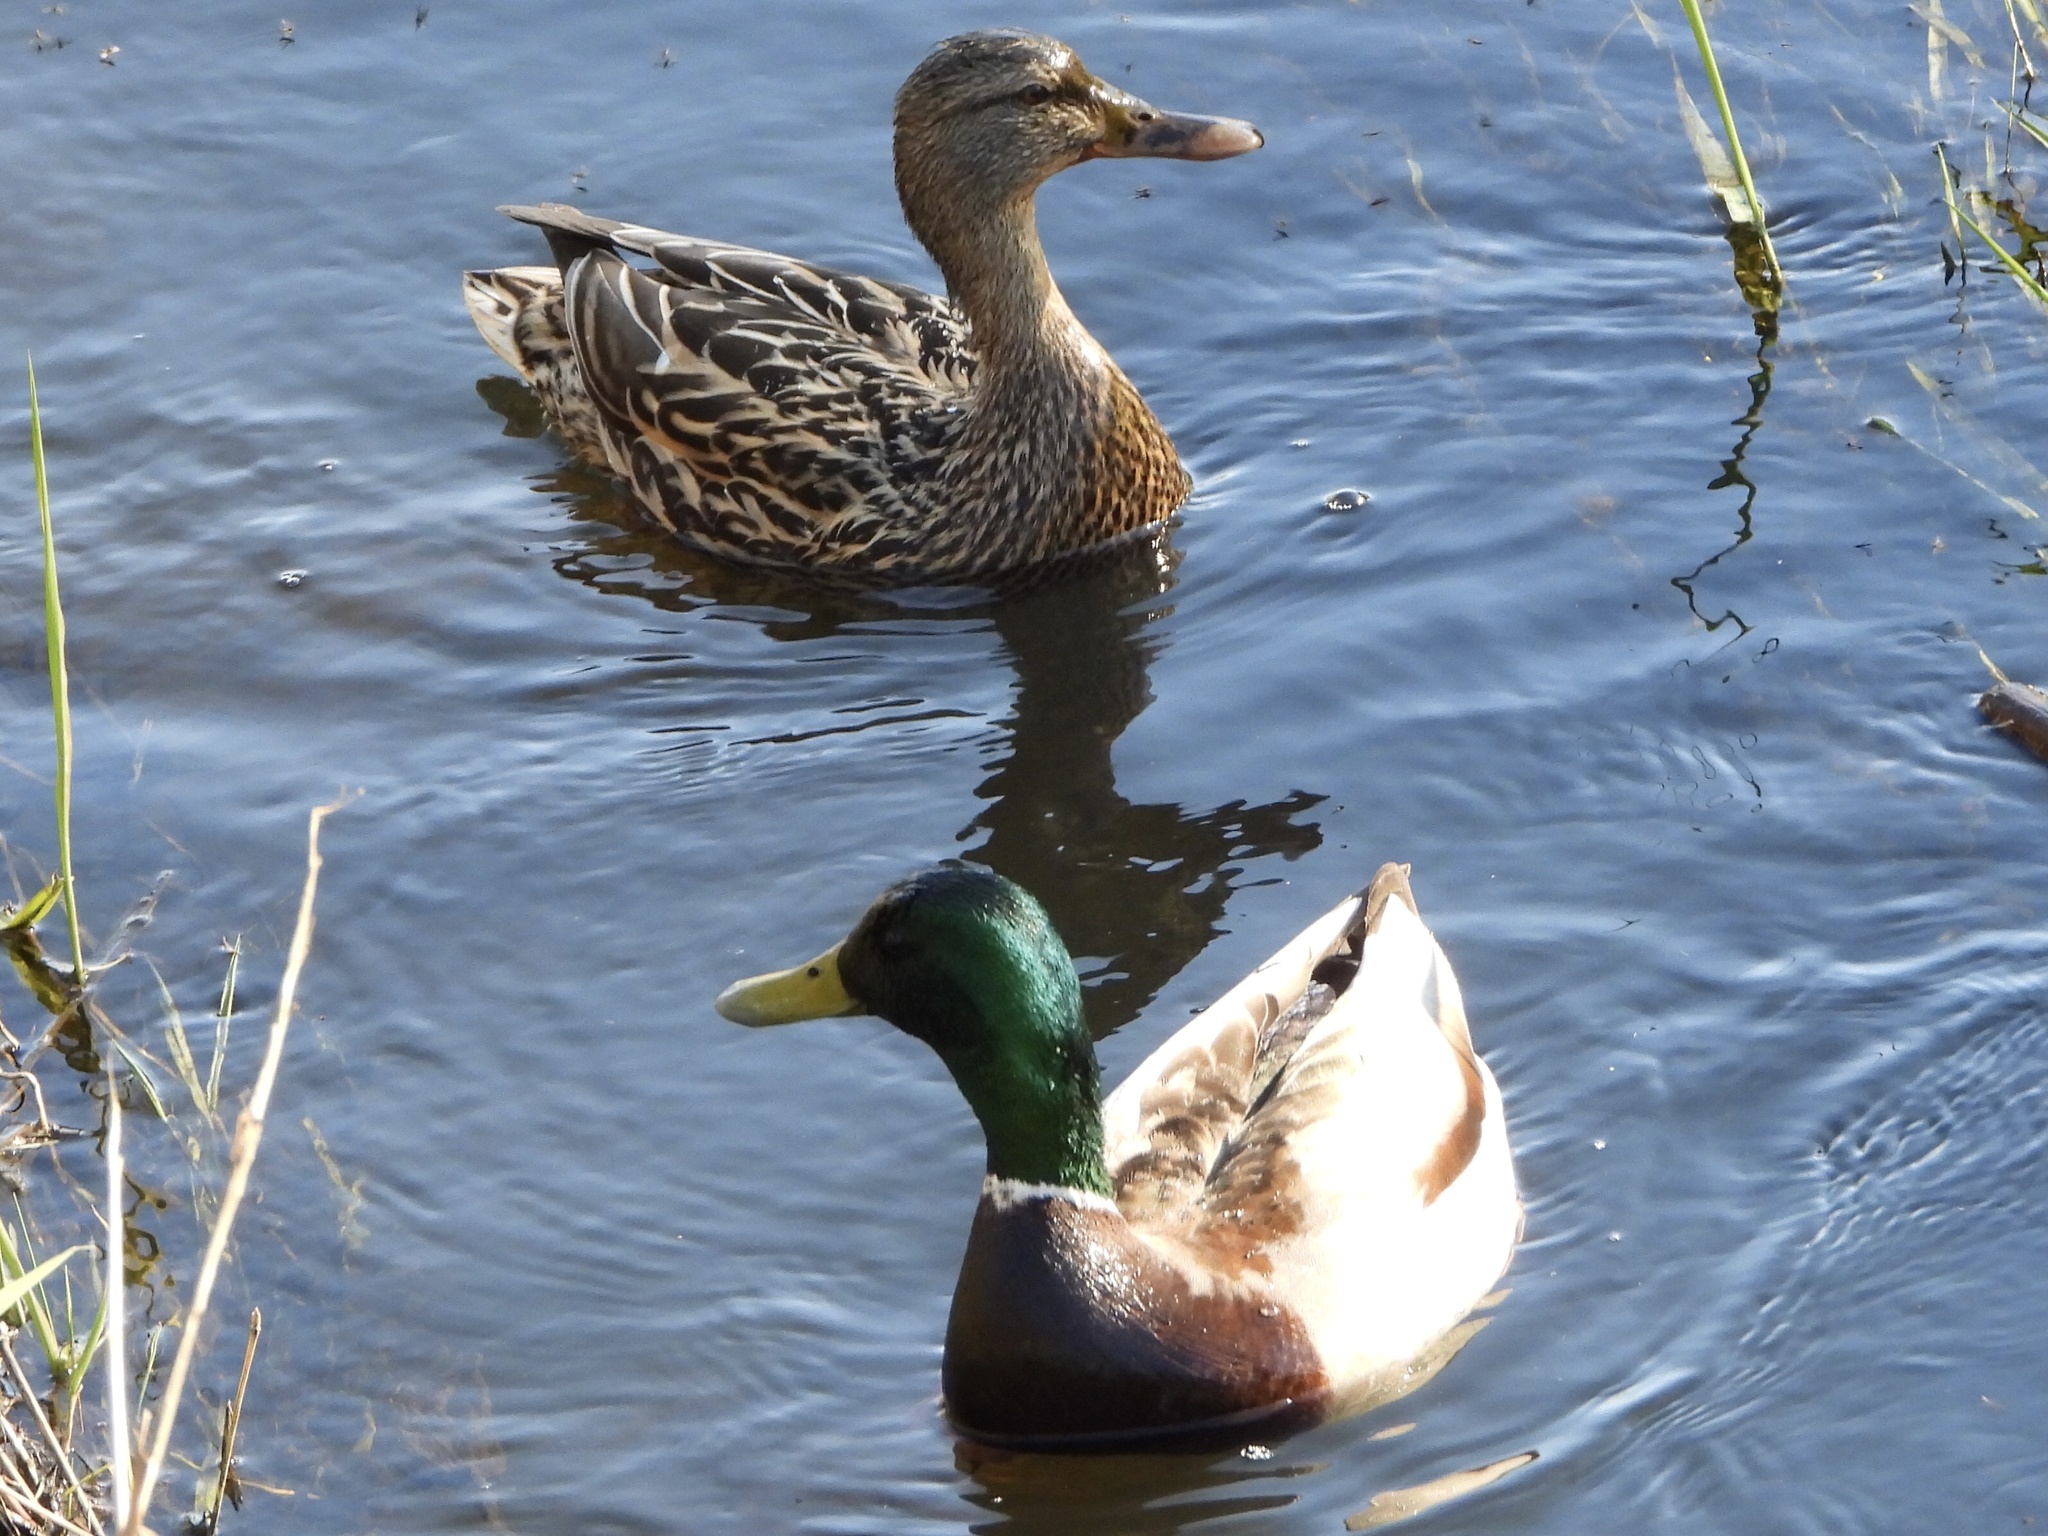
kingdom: Animalia
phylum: Chordata
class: Aves
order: Anseriformes
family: Anatidae
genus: Anas
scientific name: Anas platyrhynchos
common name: Mallard
